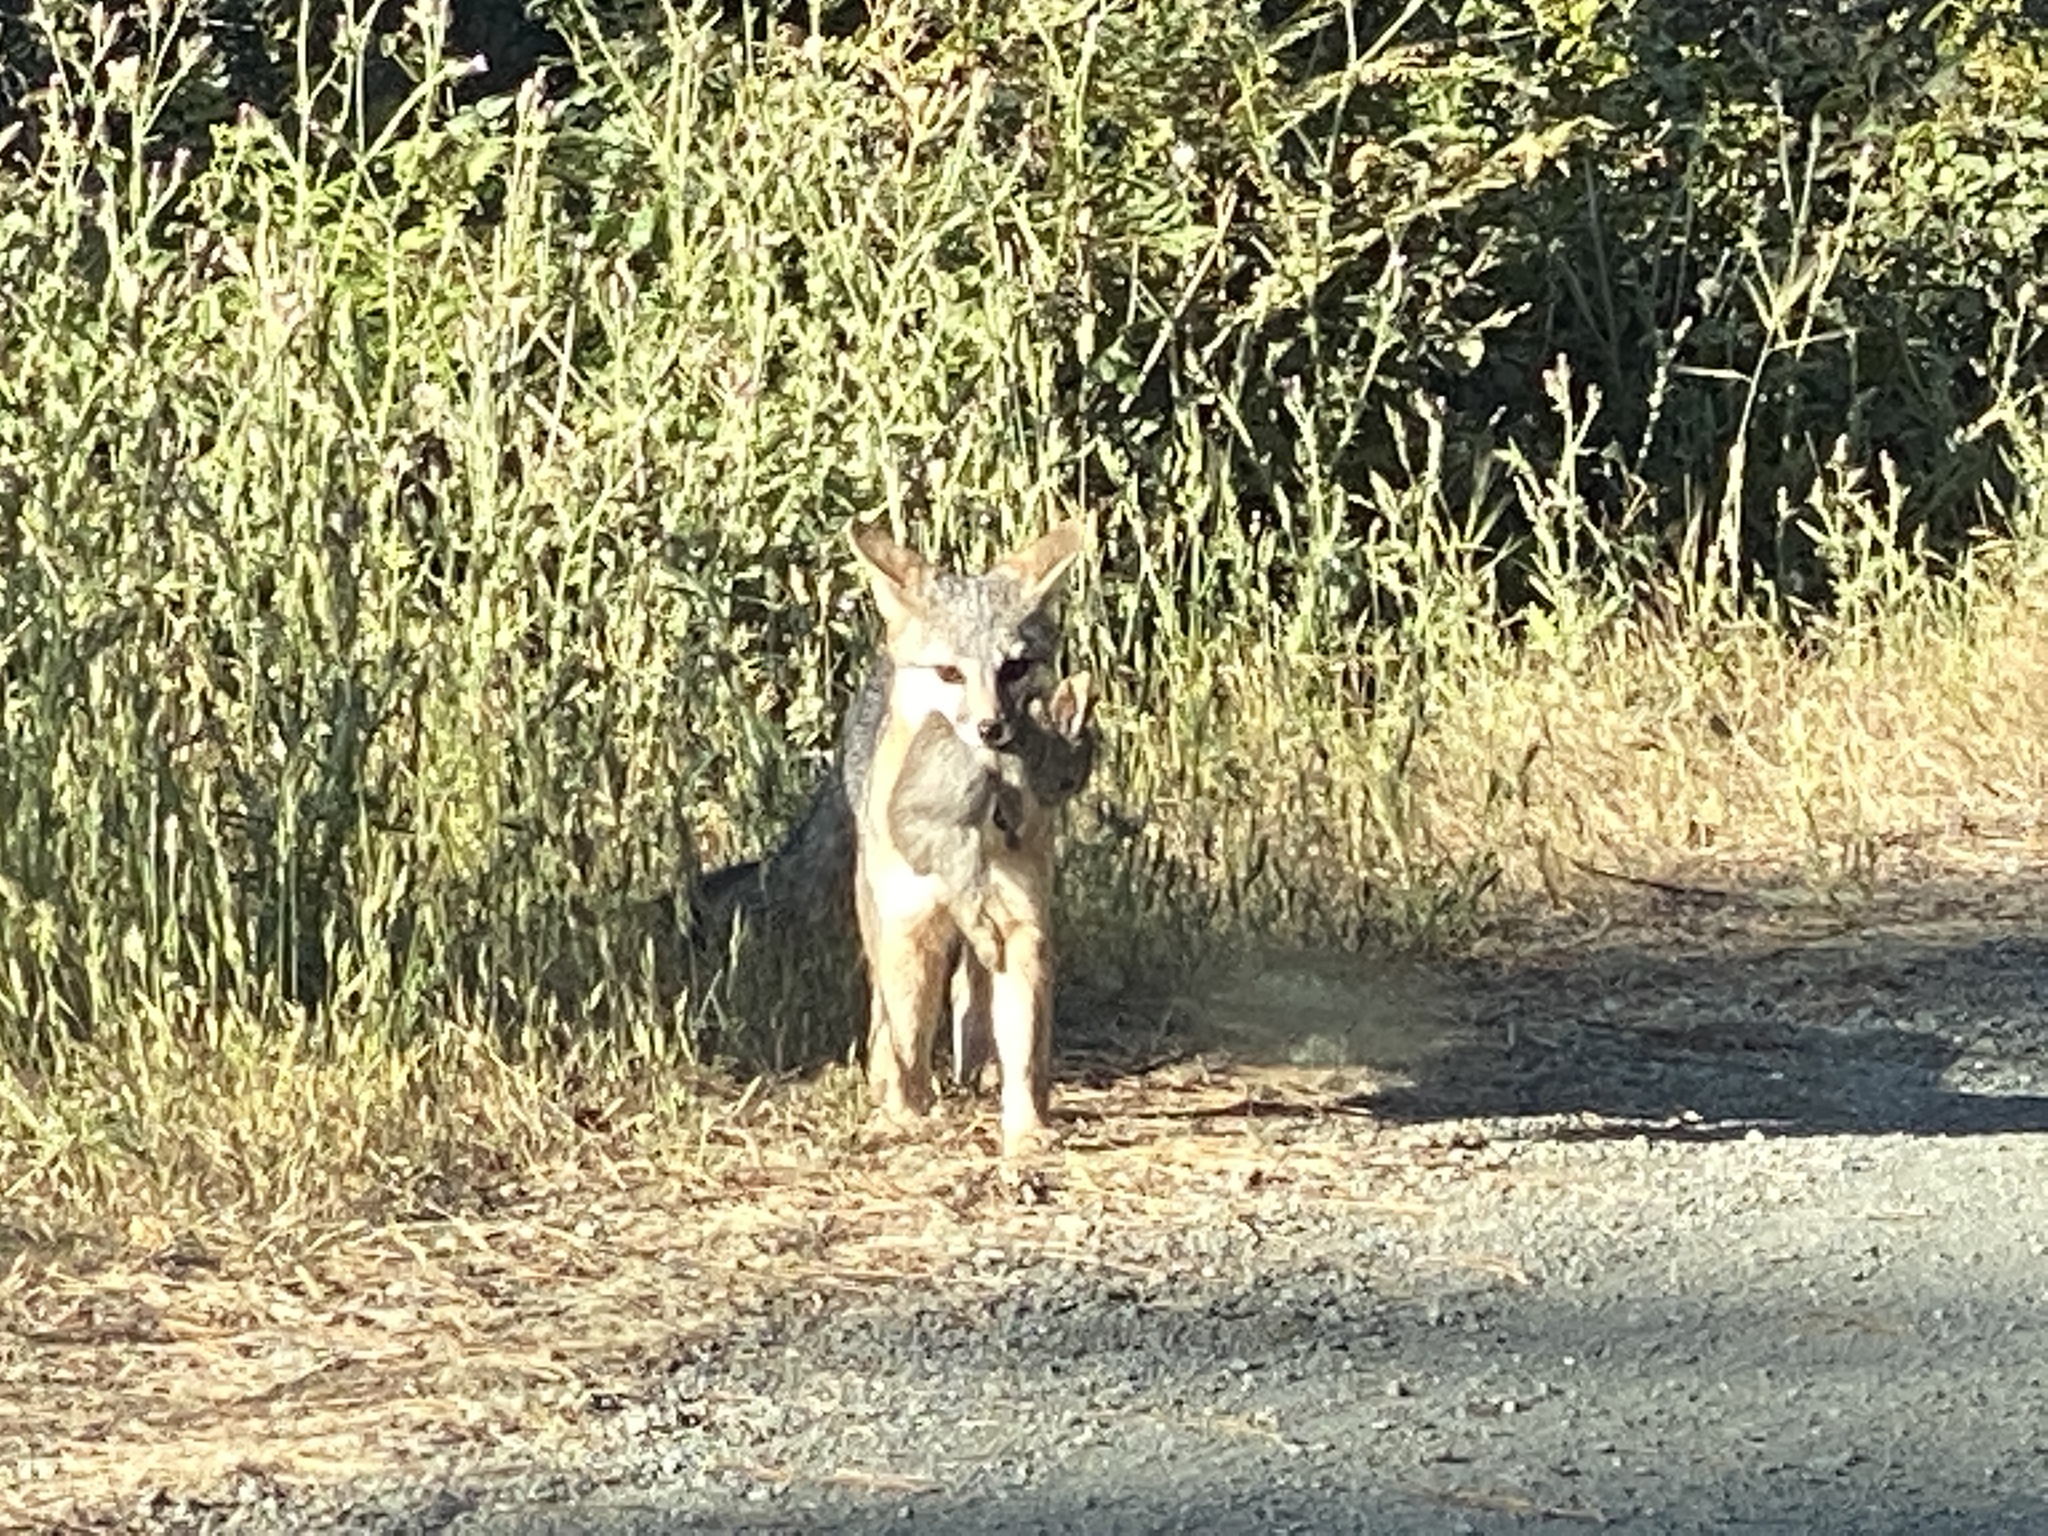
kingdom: Animalia
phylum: Chordata
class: Mammalia
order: Carnivora
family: Canidae
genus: Urocyon
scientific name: Urocyon cinereoargenteus
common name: Gray fox
